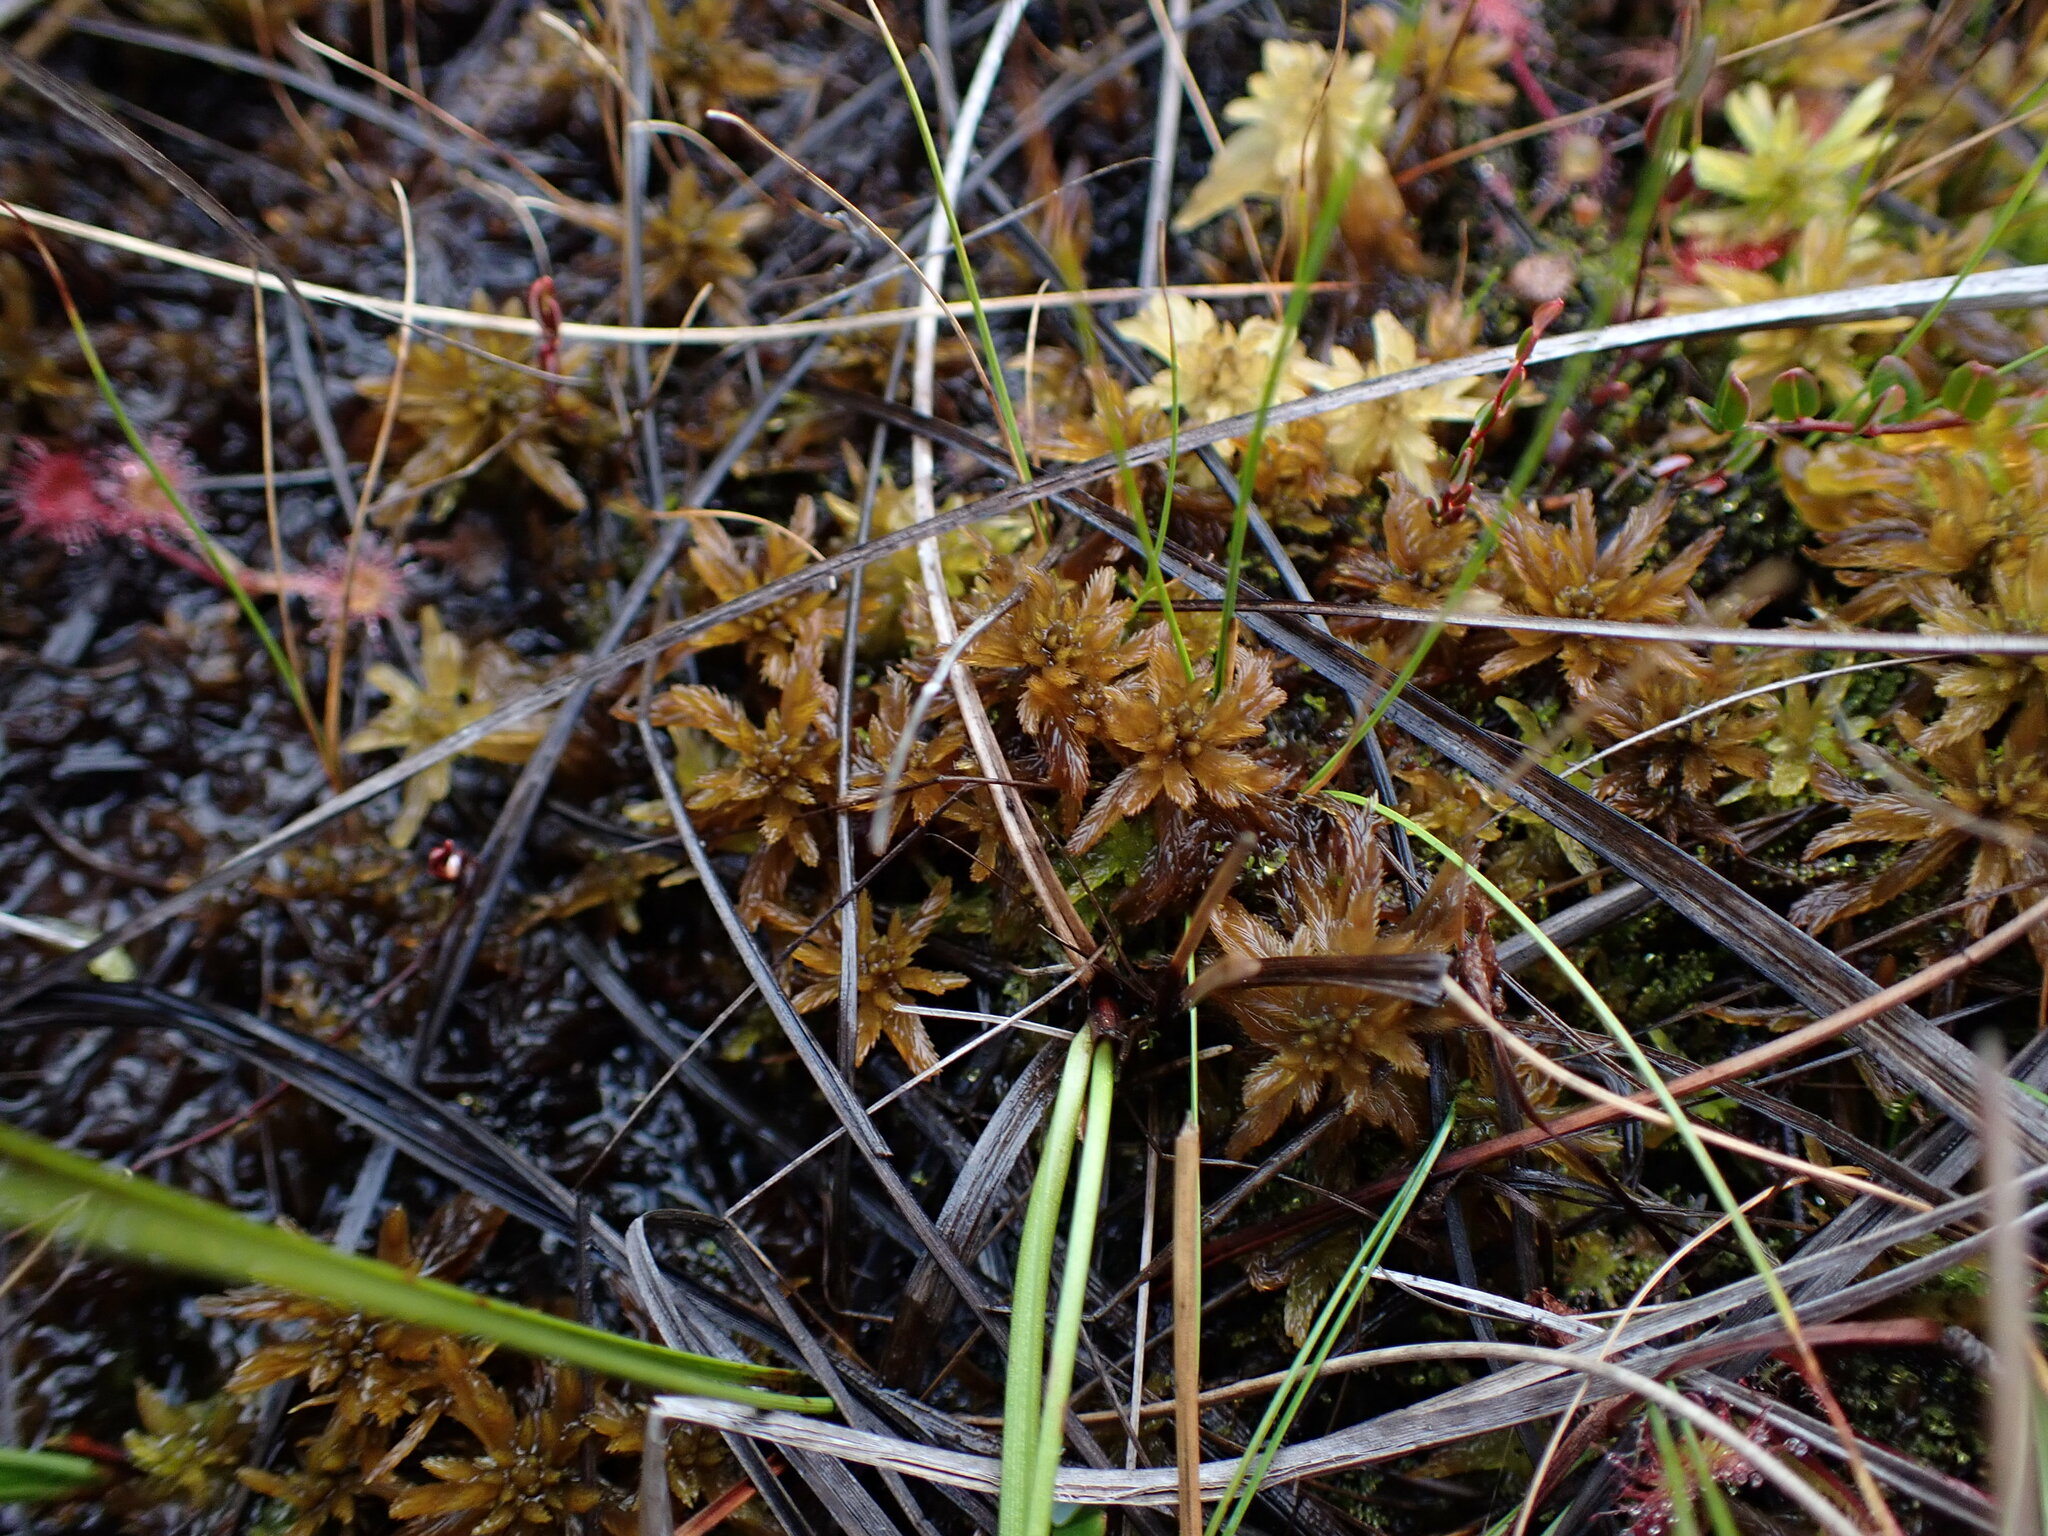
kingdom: Plantae
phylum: Bryophyta
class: Sphagnopsida
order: Sphagnales
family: Sphagnaceae
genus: Sphagnum
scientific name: Sphagnum lindbergii
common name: Lindberg's peat moss
